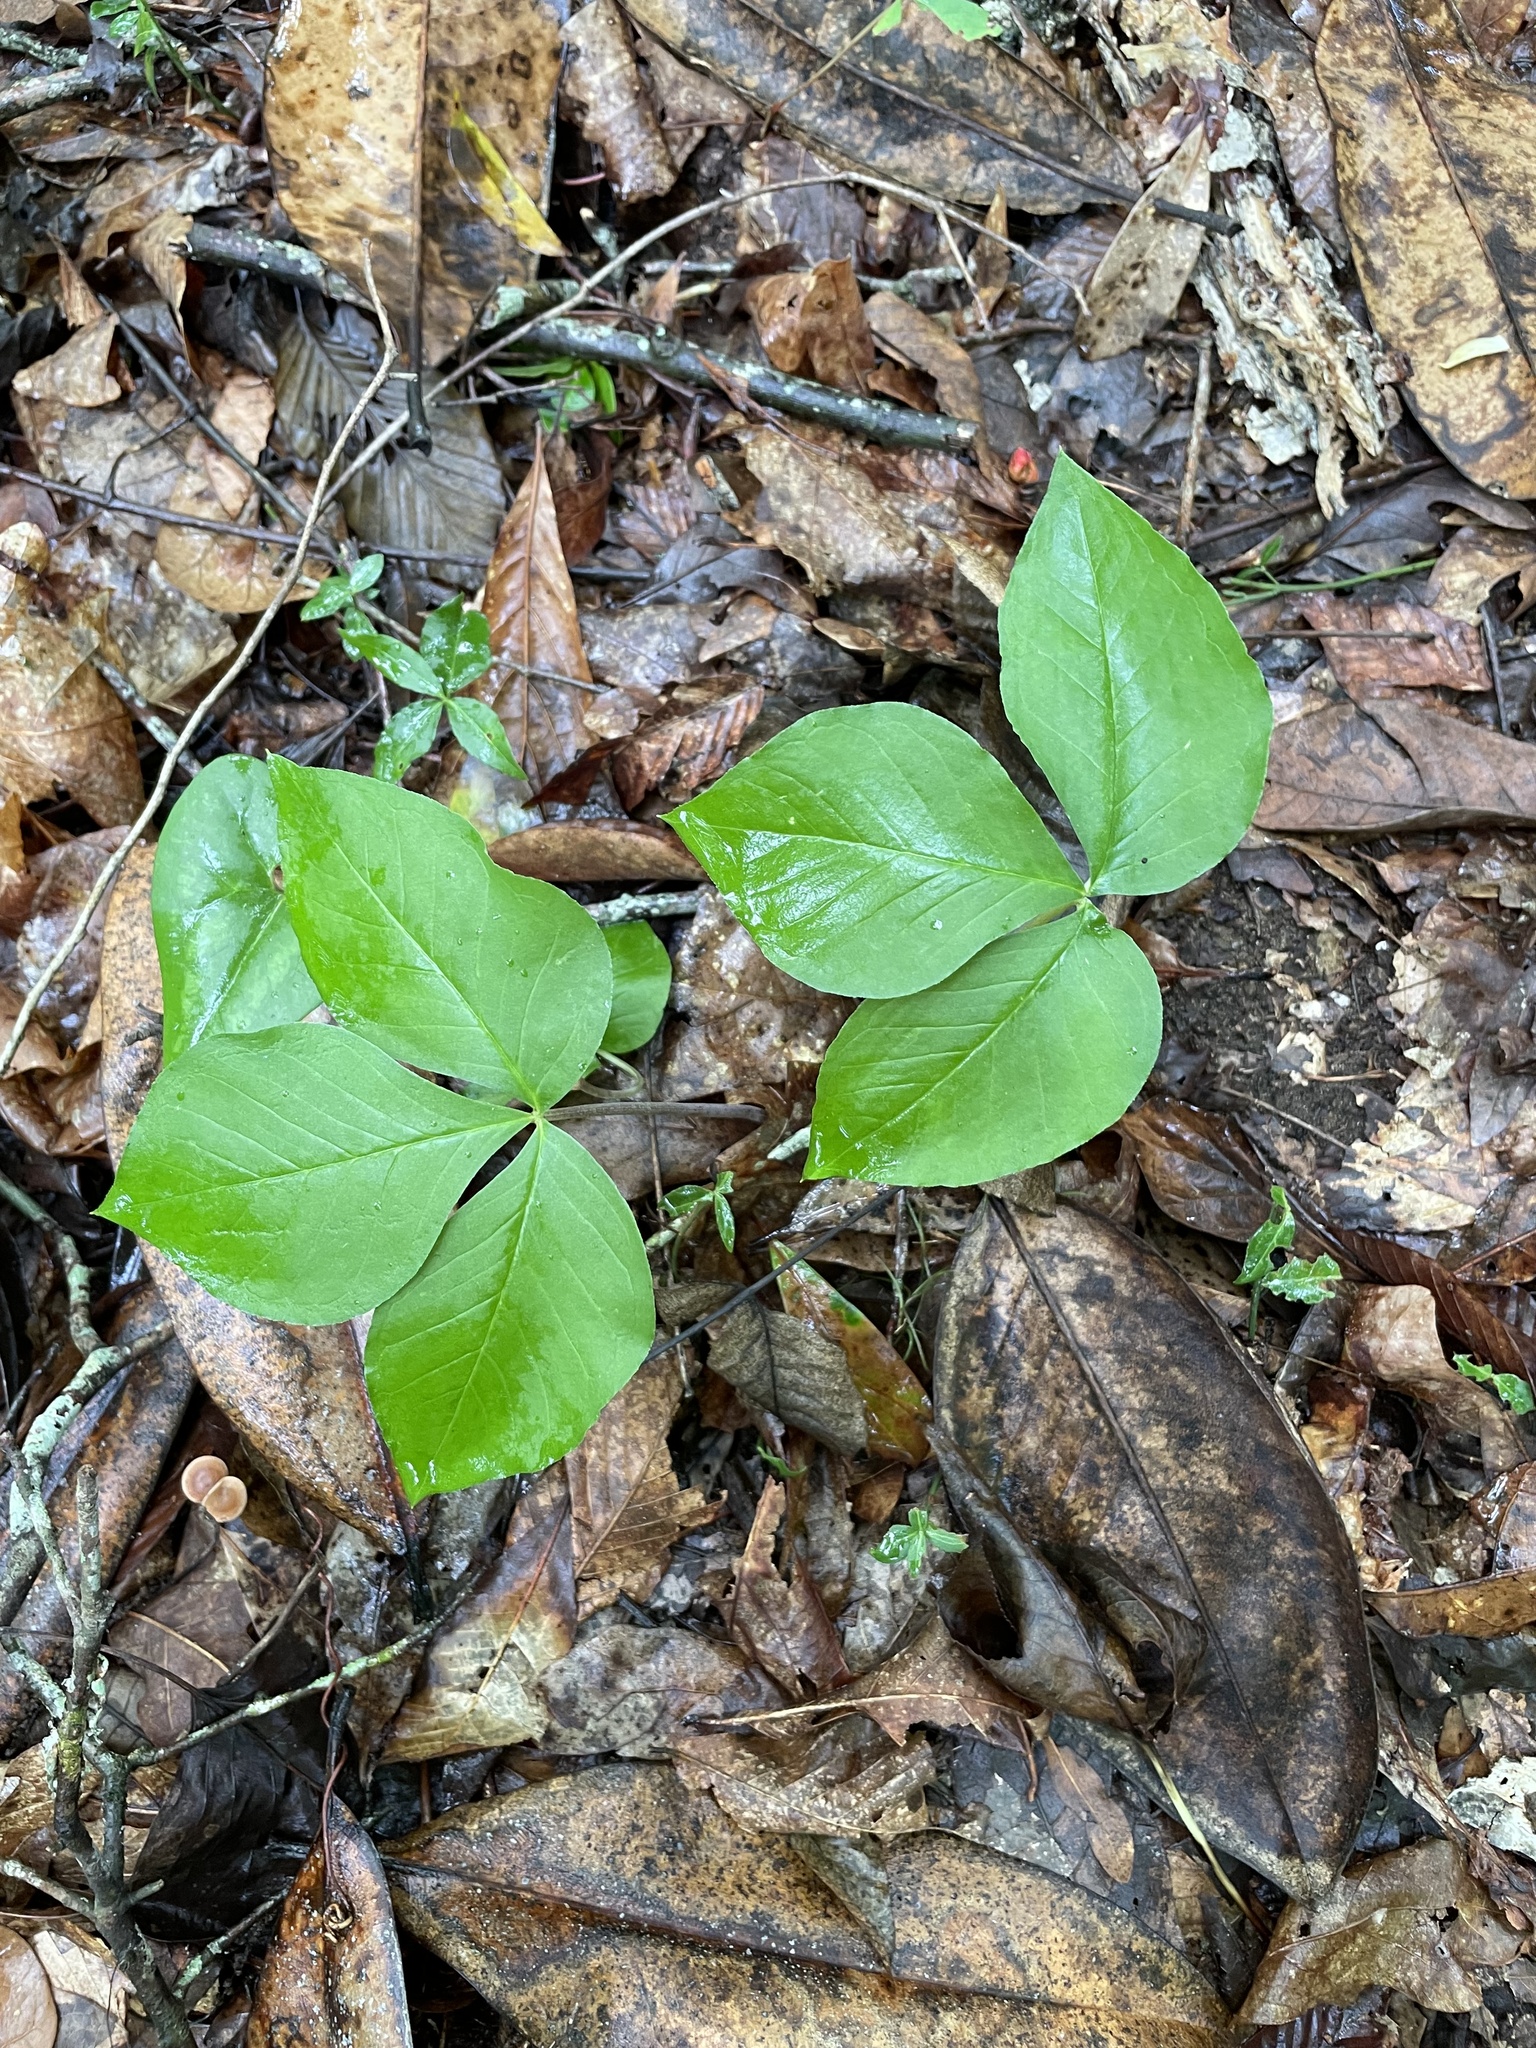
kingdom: Plantae
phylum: Tracheophyta
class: Liliopsida
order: Alismatales
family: Araceae
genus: Arisaema
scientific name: Arisaema triphyllum
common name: Jack-in-the-pulpit
